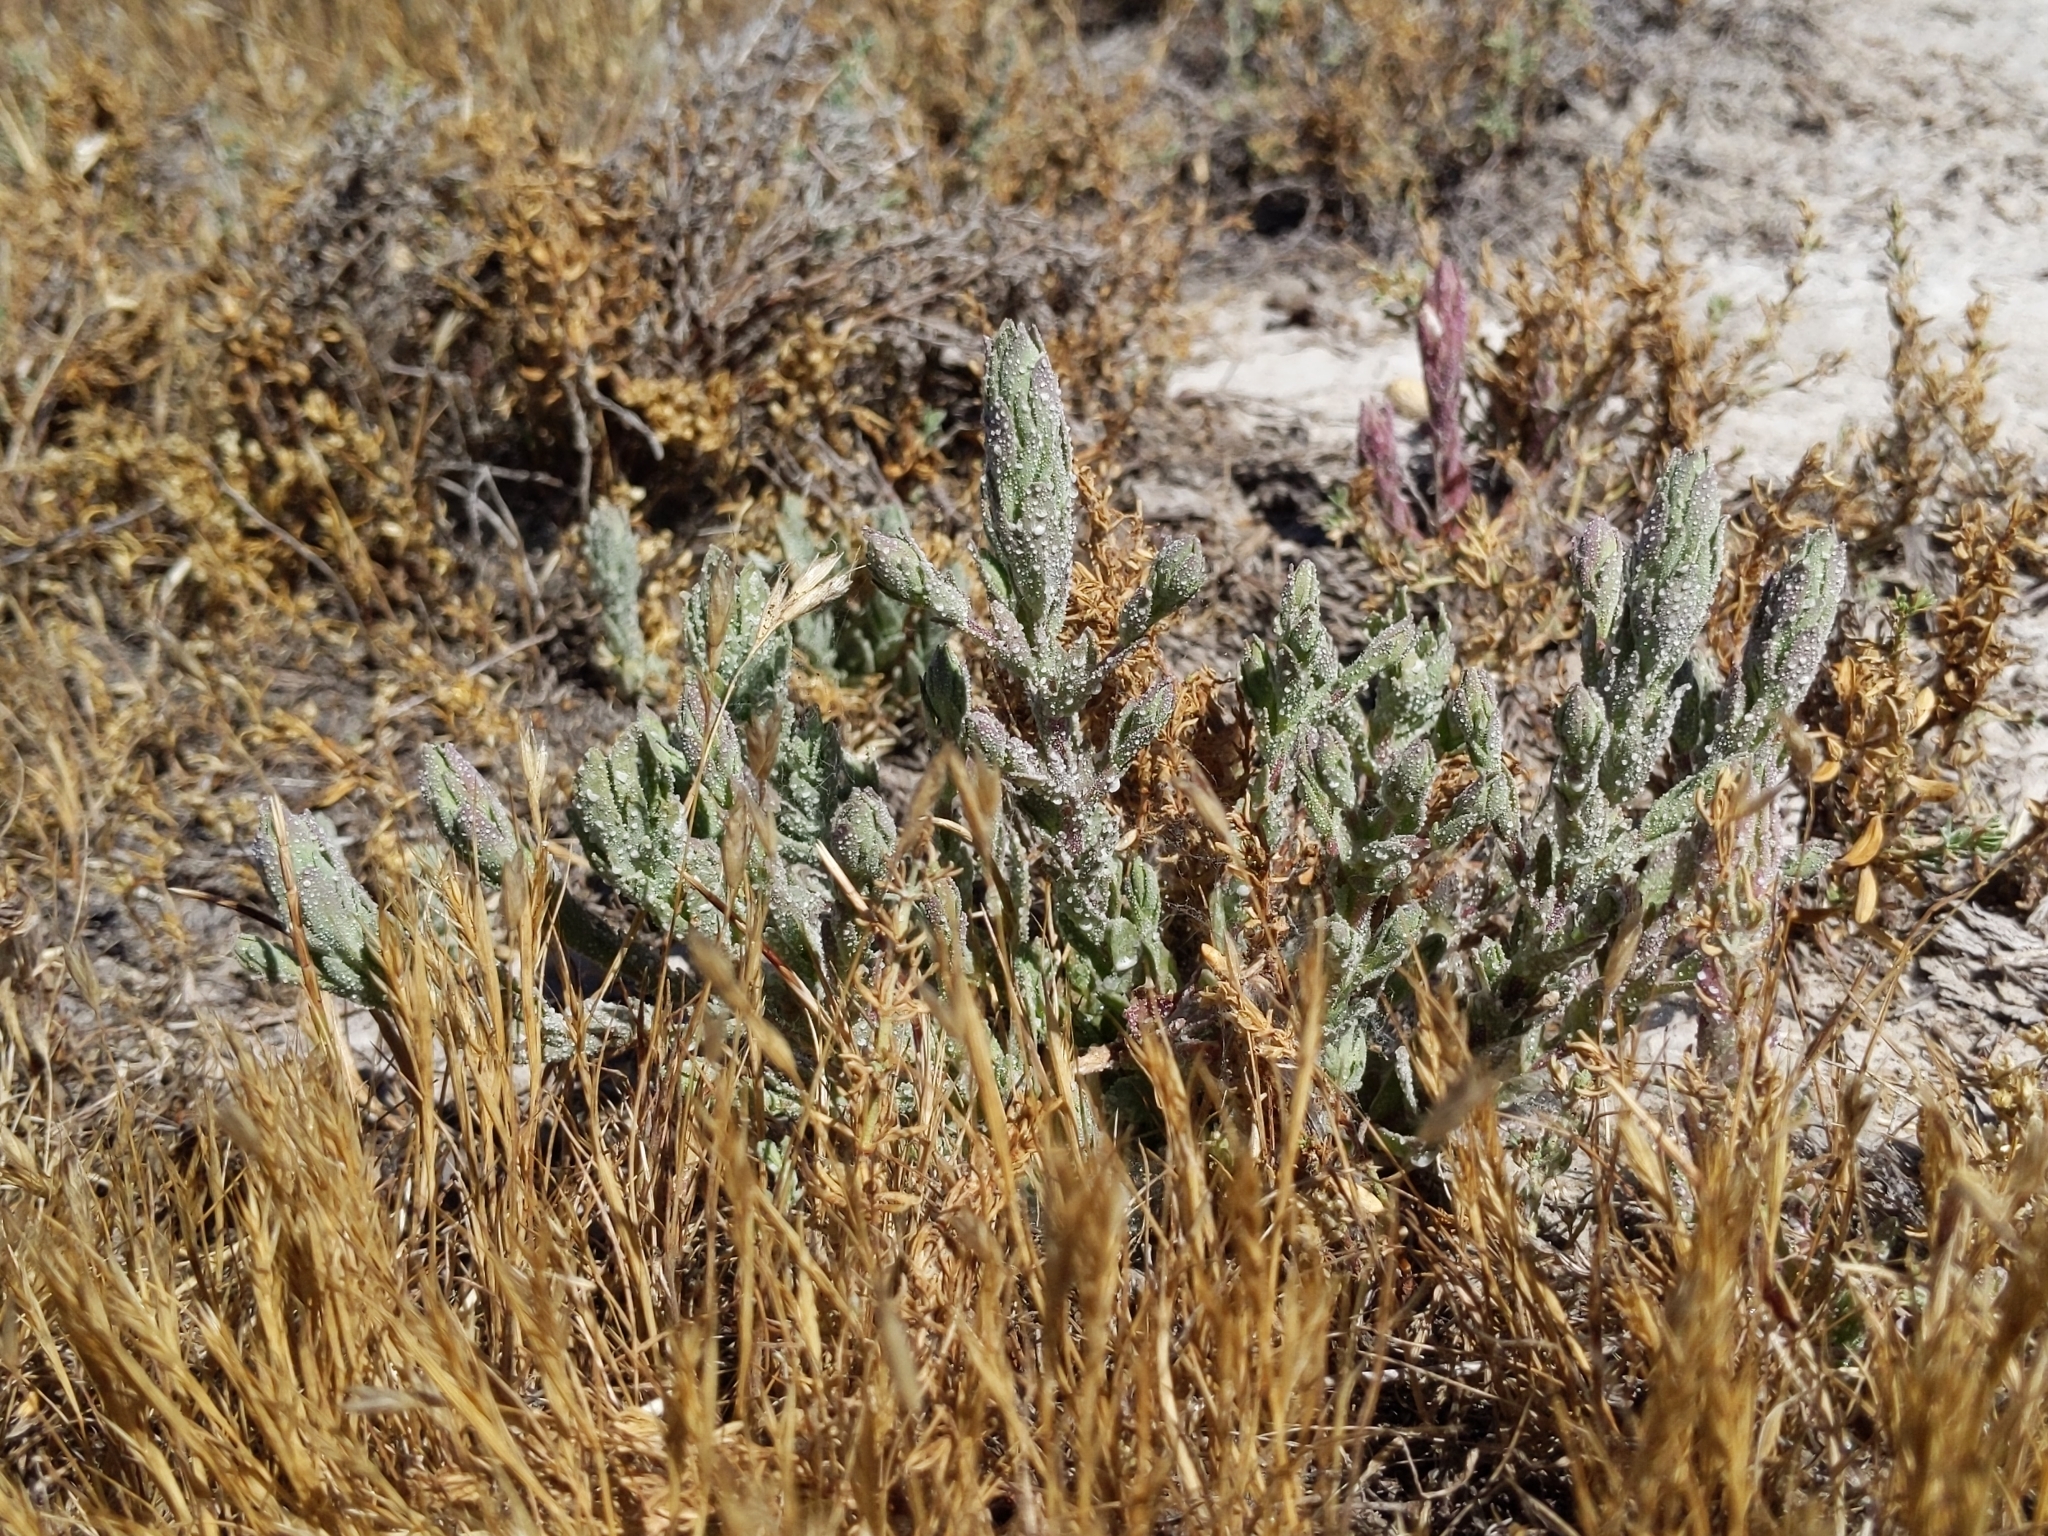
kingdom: Plantae
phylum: Tracheophyta
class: Magnoliopsida
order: Lamiales
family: Orobanchaceae
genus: Chloropyron
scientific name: Chloropyron palmatum
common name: Palmate salty bird's-beak
